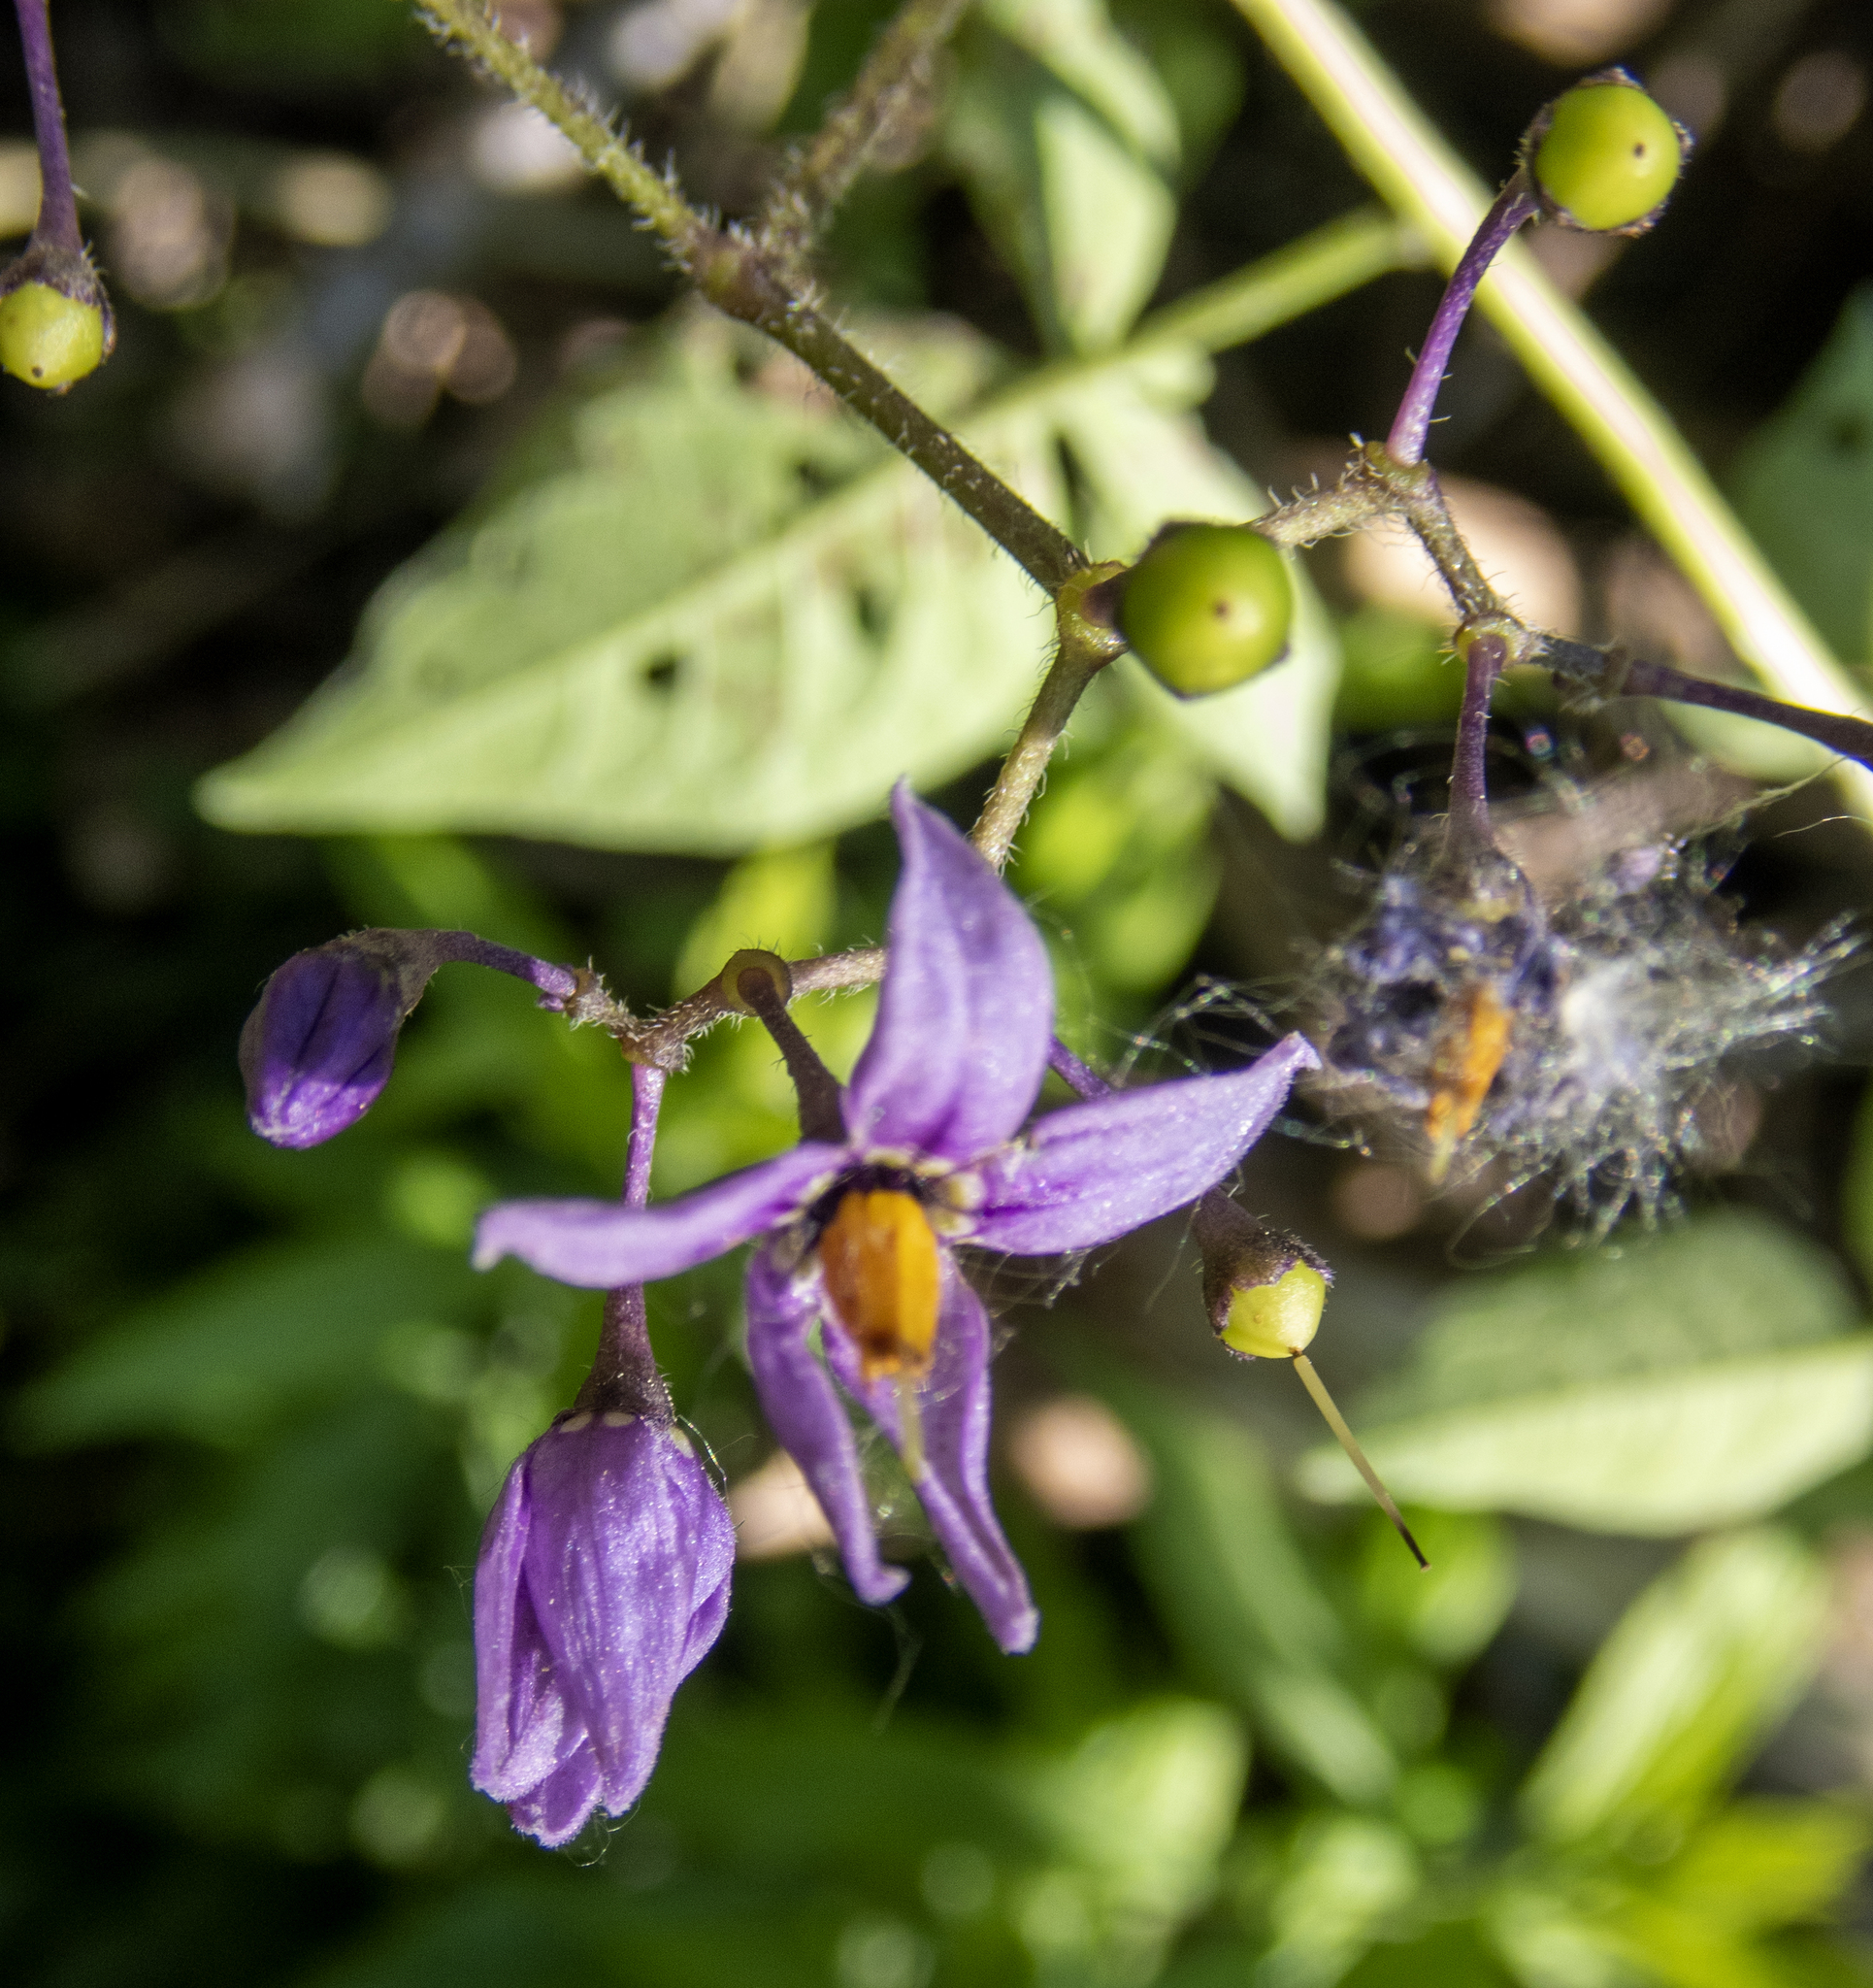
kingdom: Plantae
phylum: Tracheophyta
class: Magnoliopsida
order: Solanales
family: Solanaceae
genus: Solanum
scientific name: Solanum dulcamara
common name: Climbing nightshade
